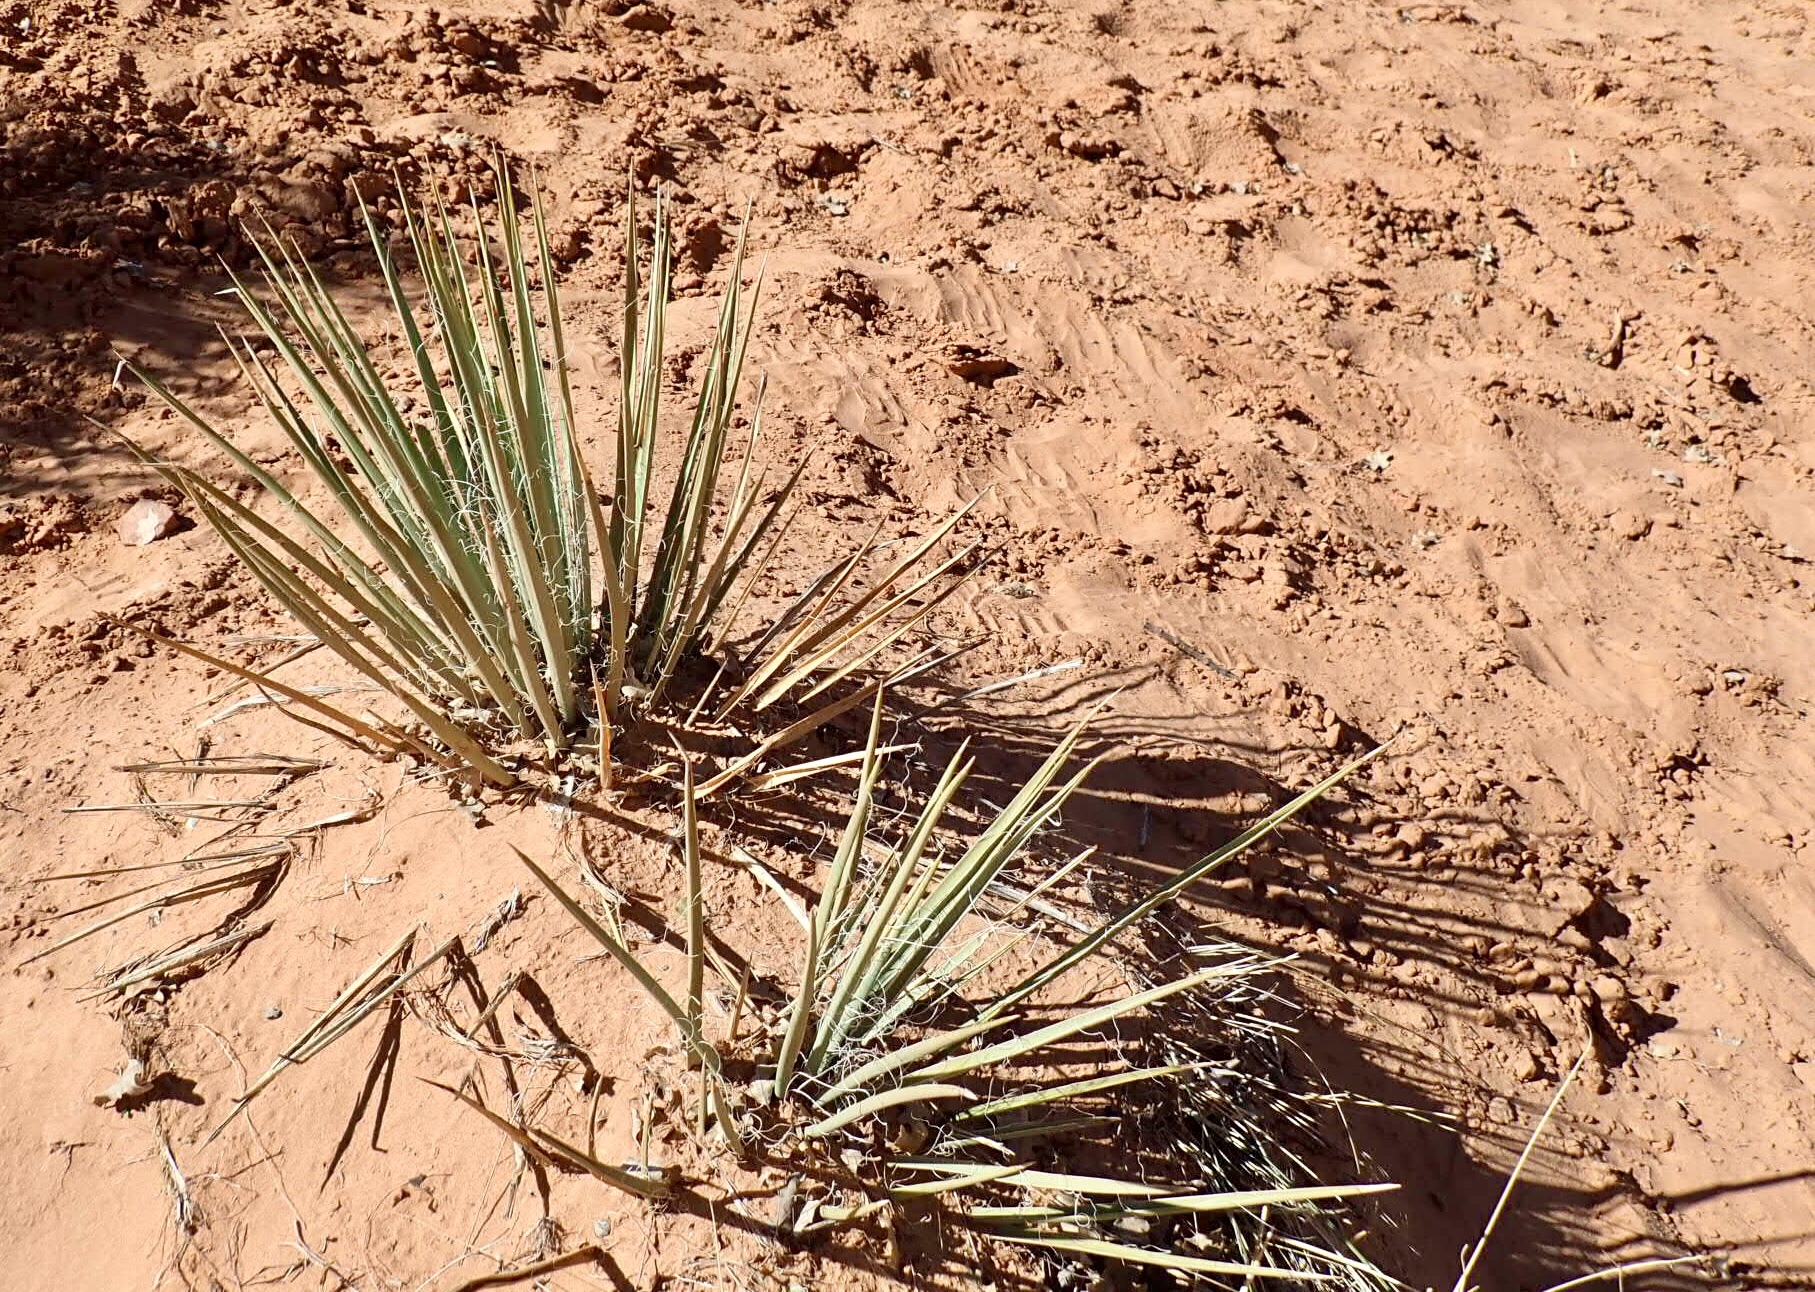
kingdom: Plantae
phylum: Tracheophyta
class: Liliopsida
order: Asparagales
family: Asparagaceae
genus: Yucca
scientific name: Yucca angustissima
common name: Narrowleaf yucca
